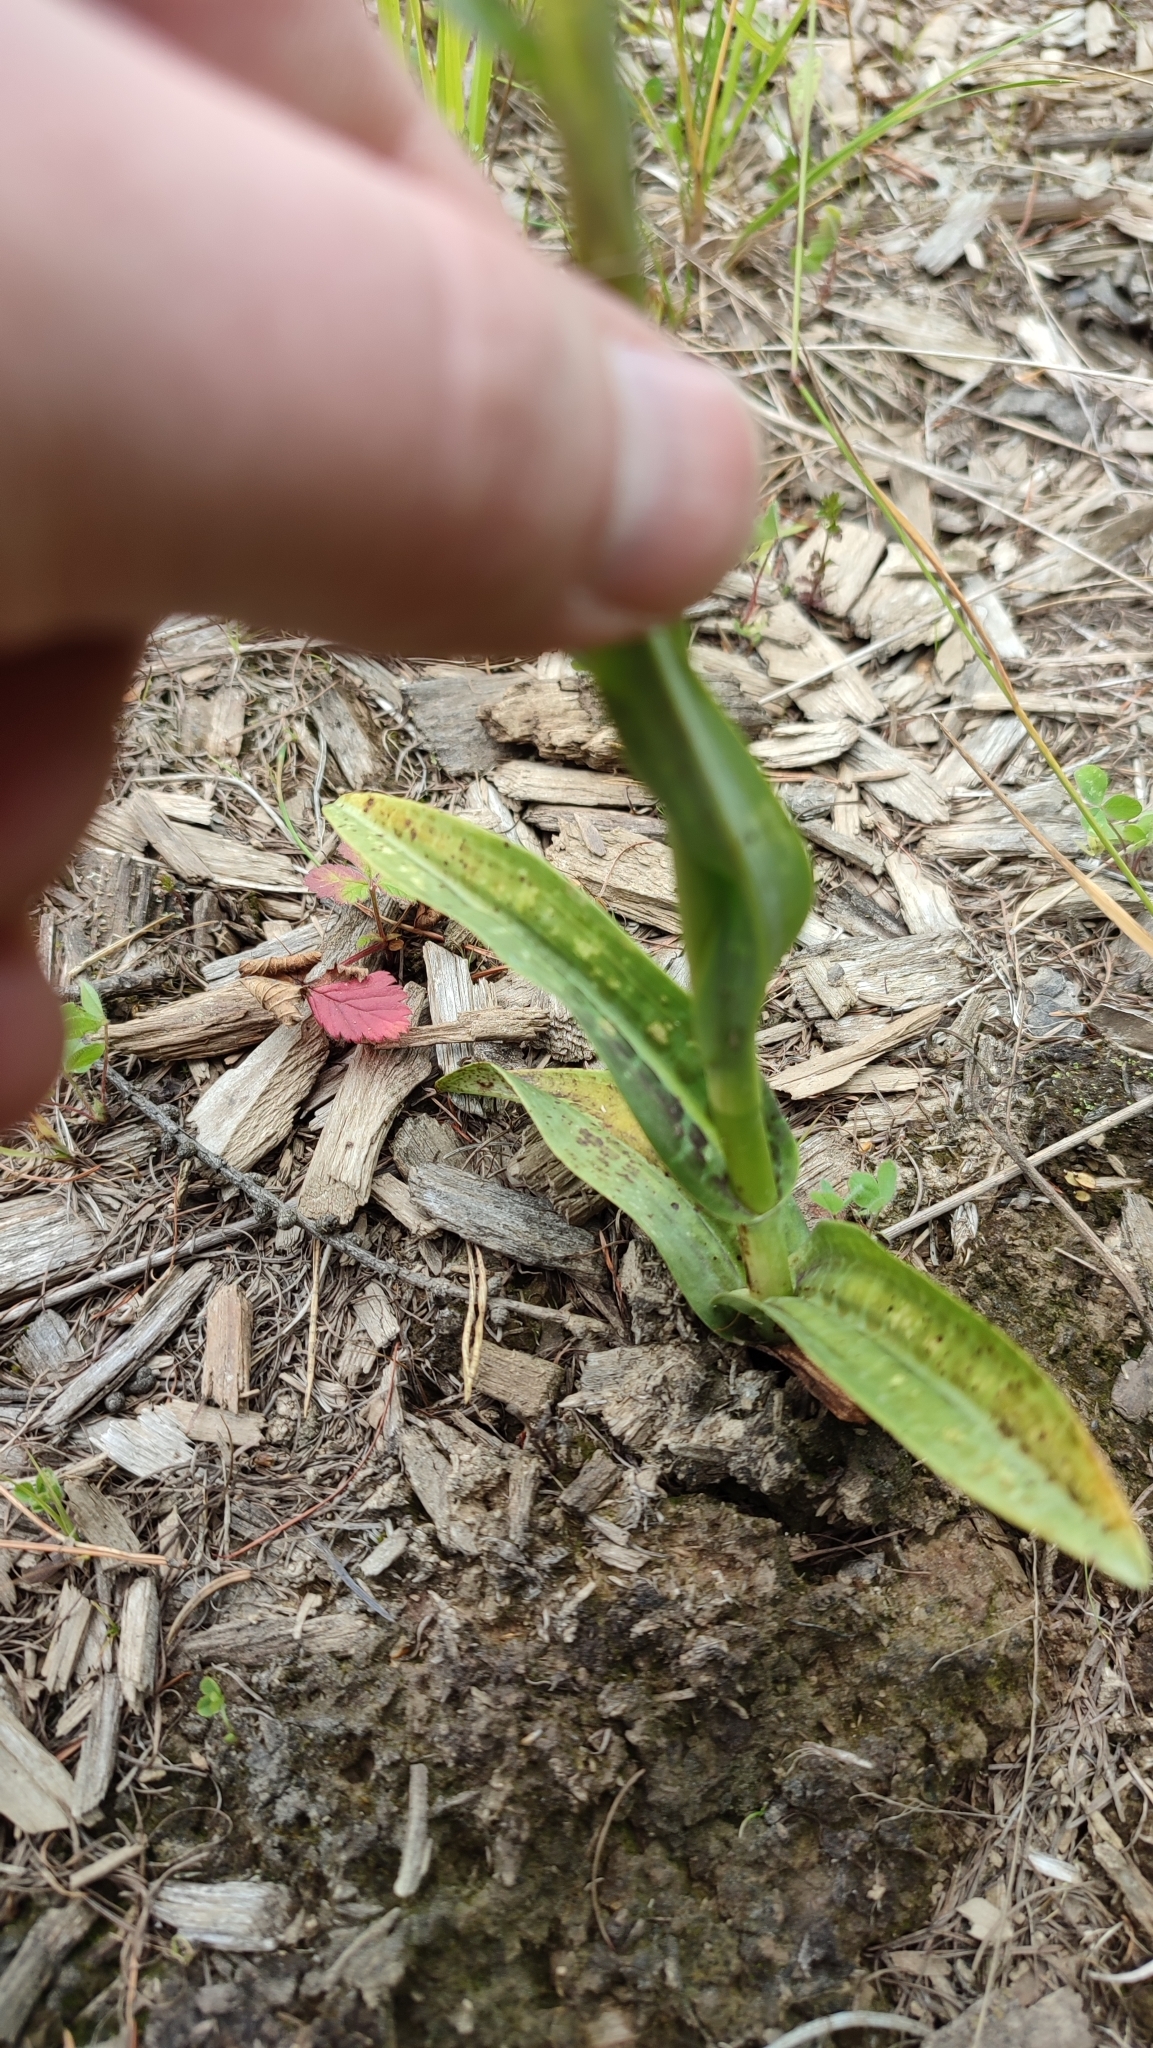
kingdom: Plantae
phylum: Tracheophyta
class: Liliopsida
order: Asparagales
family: Orchidaceae
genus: Dactylorhiza
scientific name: Dactylorhiza incarnata
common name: Early marsh-orchid
